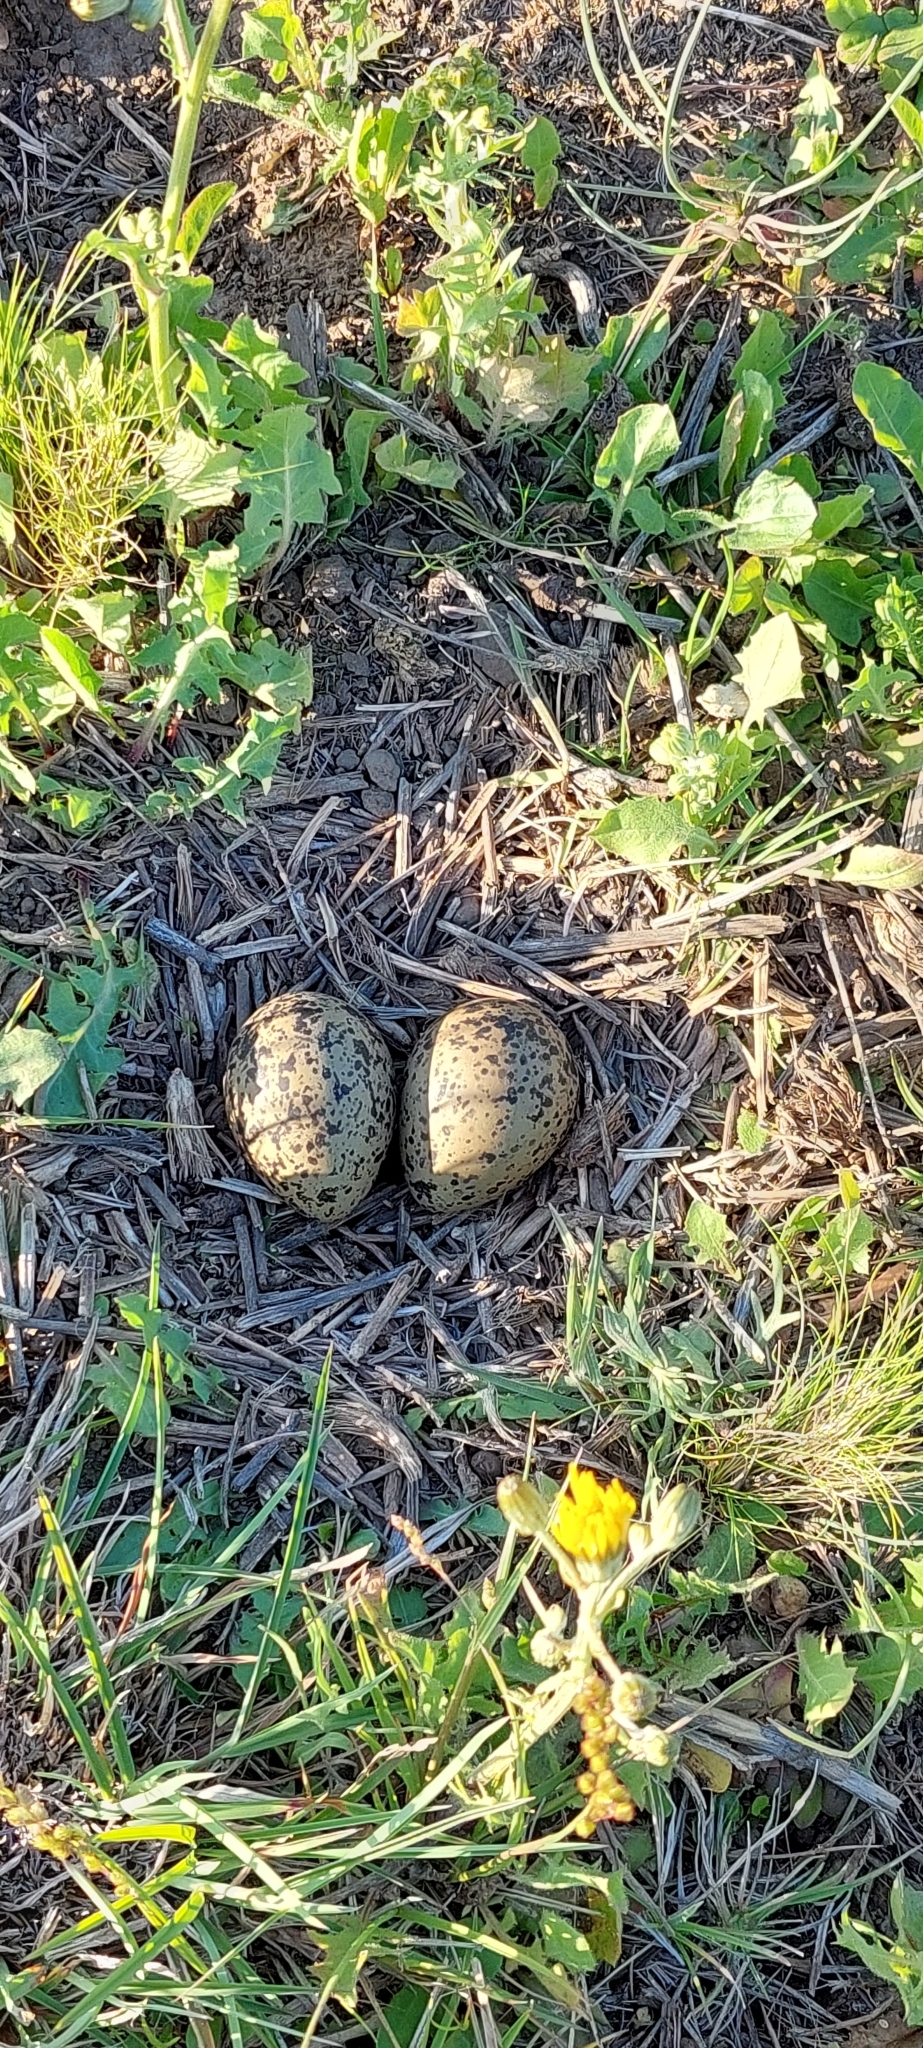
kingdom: Animalia
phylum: Chordata
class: Aves
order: Charadriiformes
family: Charadriidae
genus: Vanellus
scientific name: Vanellus chilensis
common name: Southern lapwing
